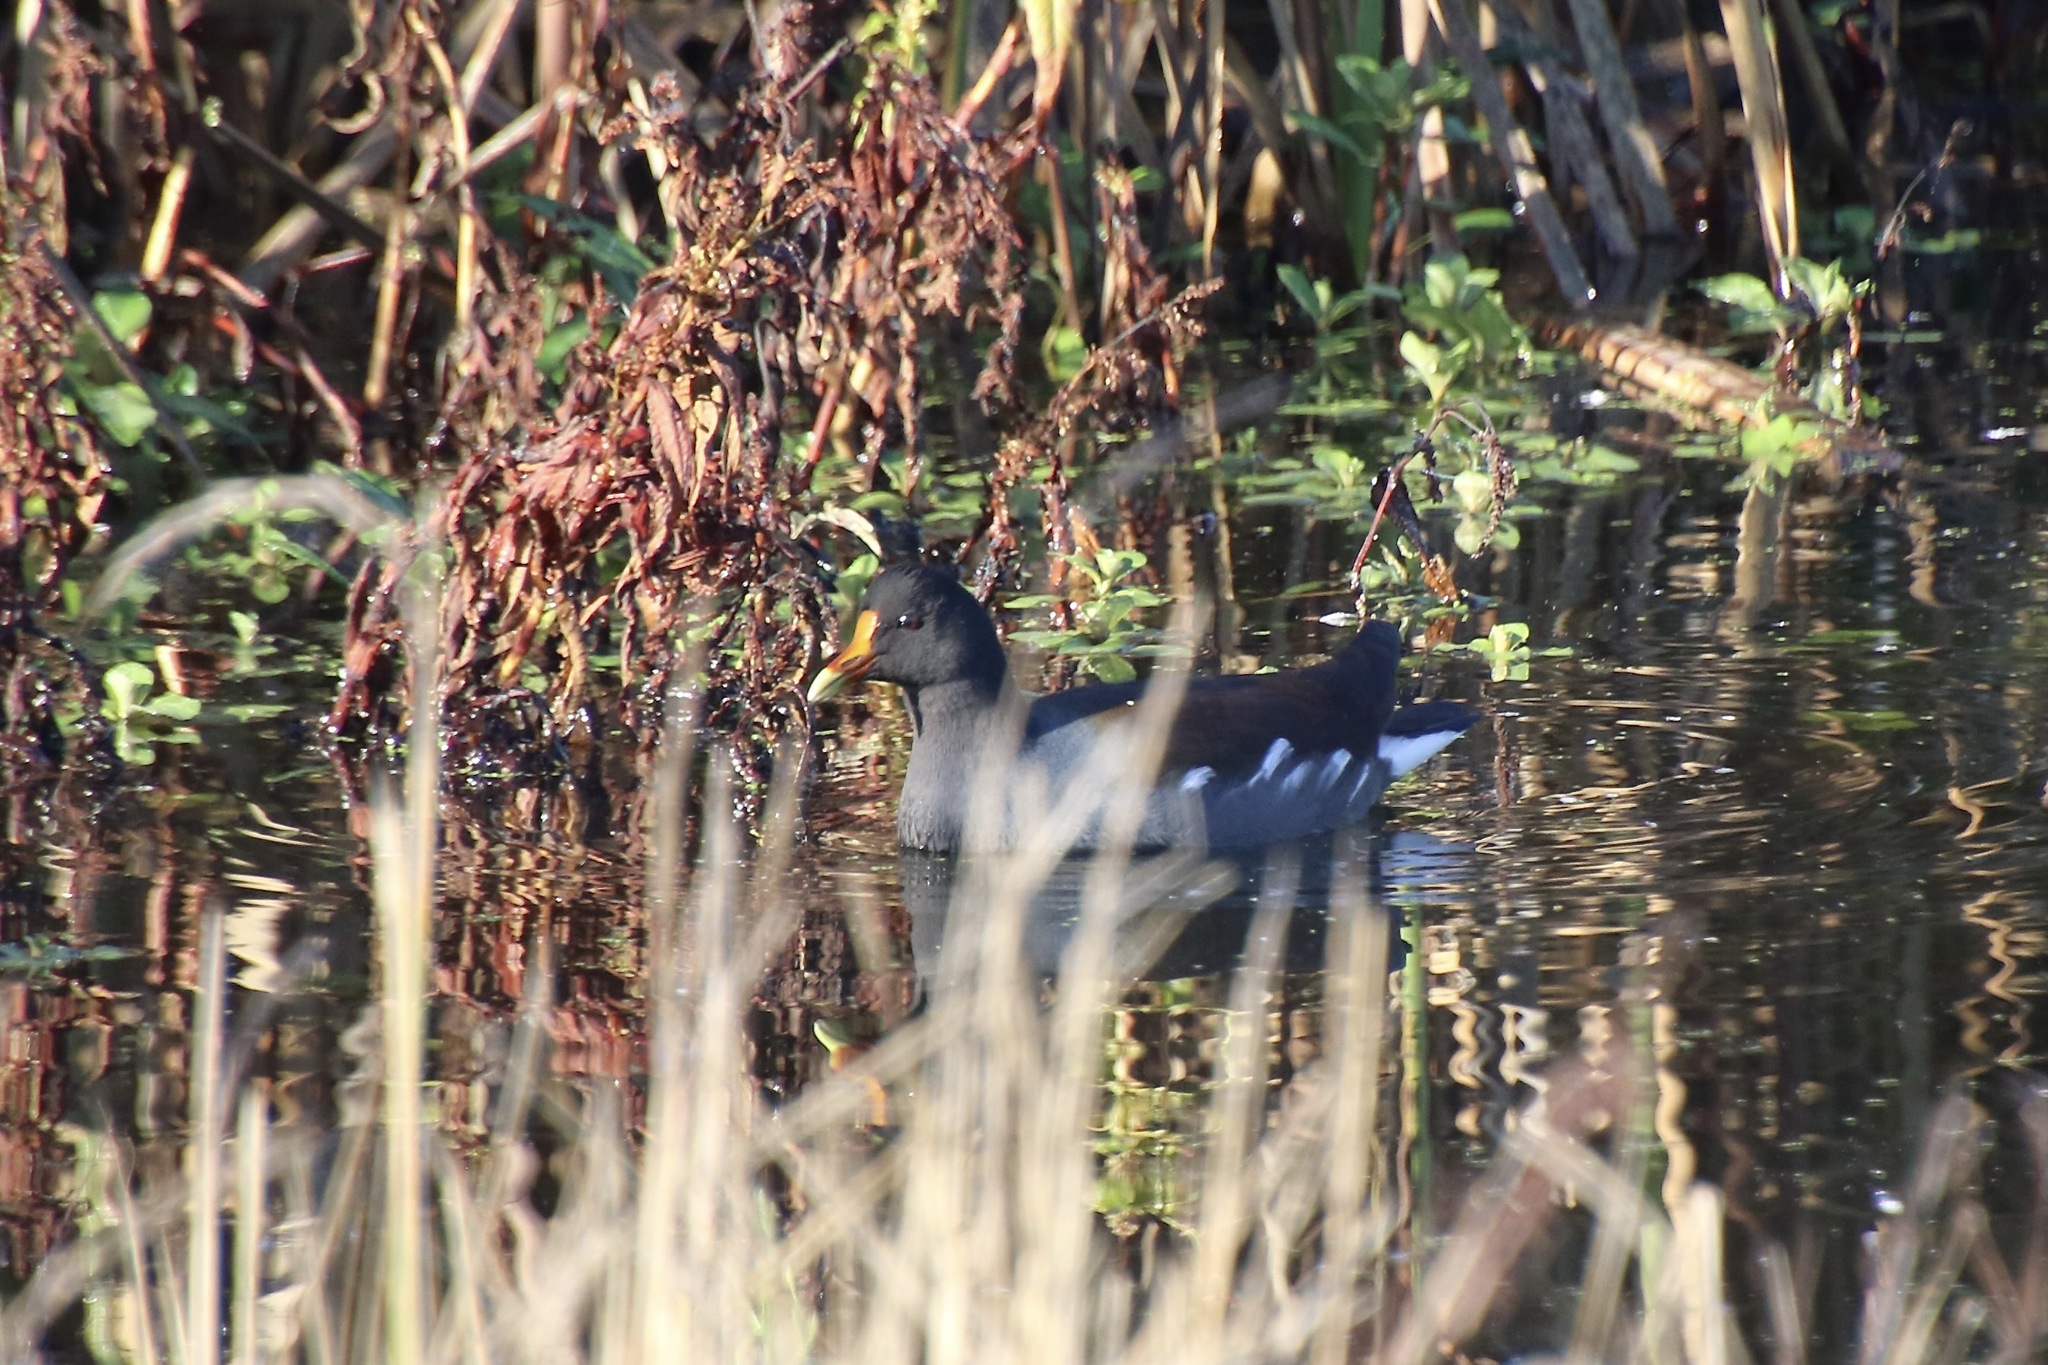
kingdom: Animalia
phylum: Chordata
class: Aves
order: Gruiformes
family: Rallidae
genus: Gallinula
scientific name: Gallinula chloropus
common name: Common moorhen
